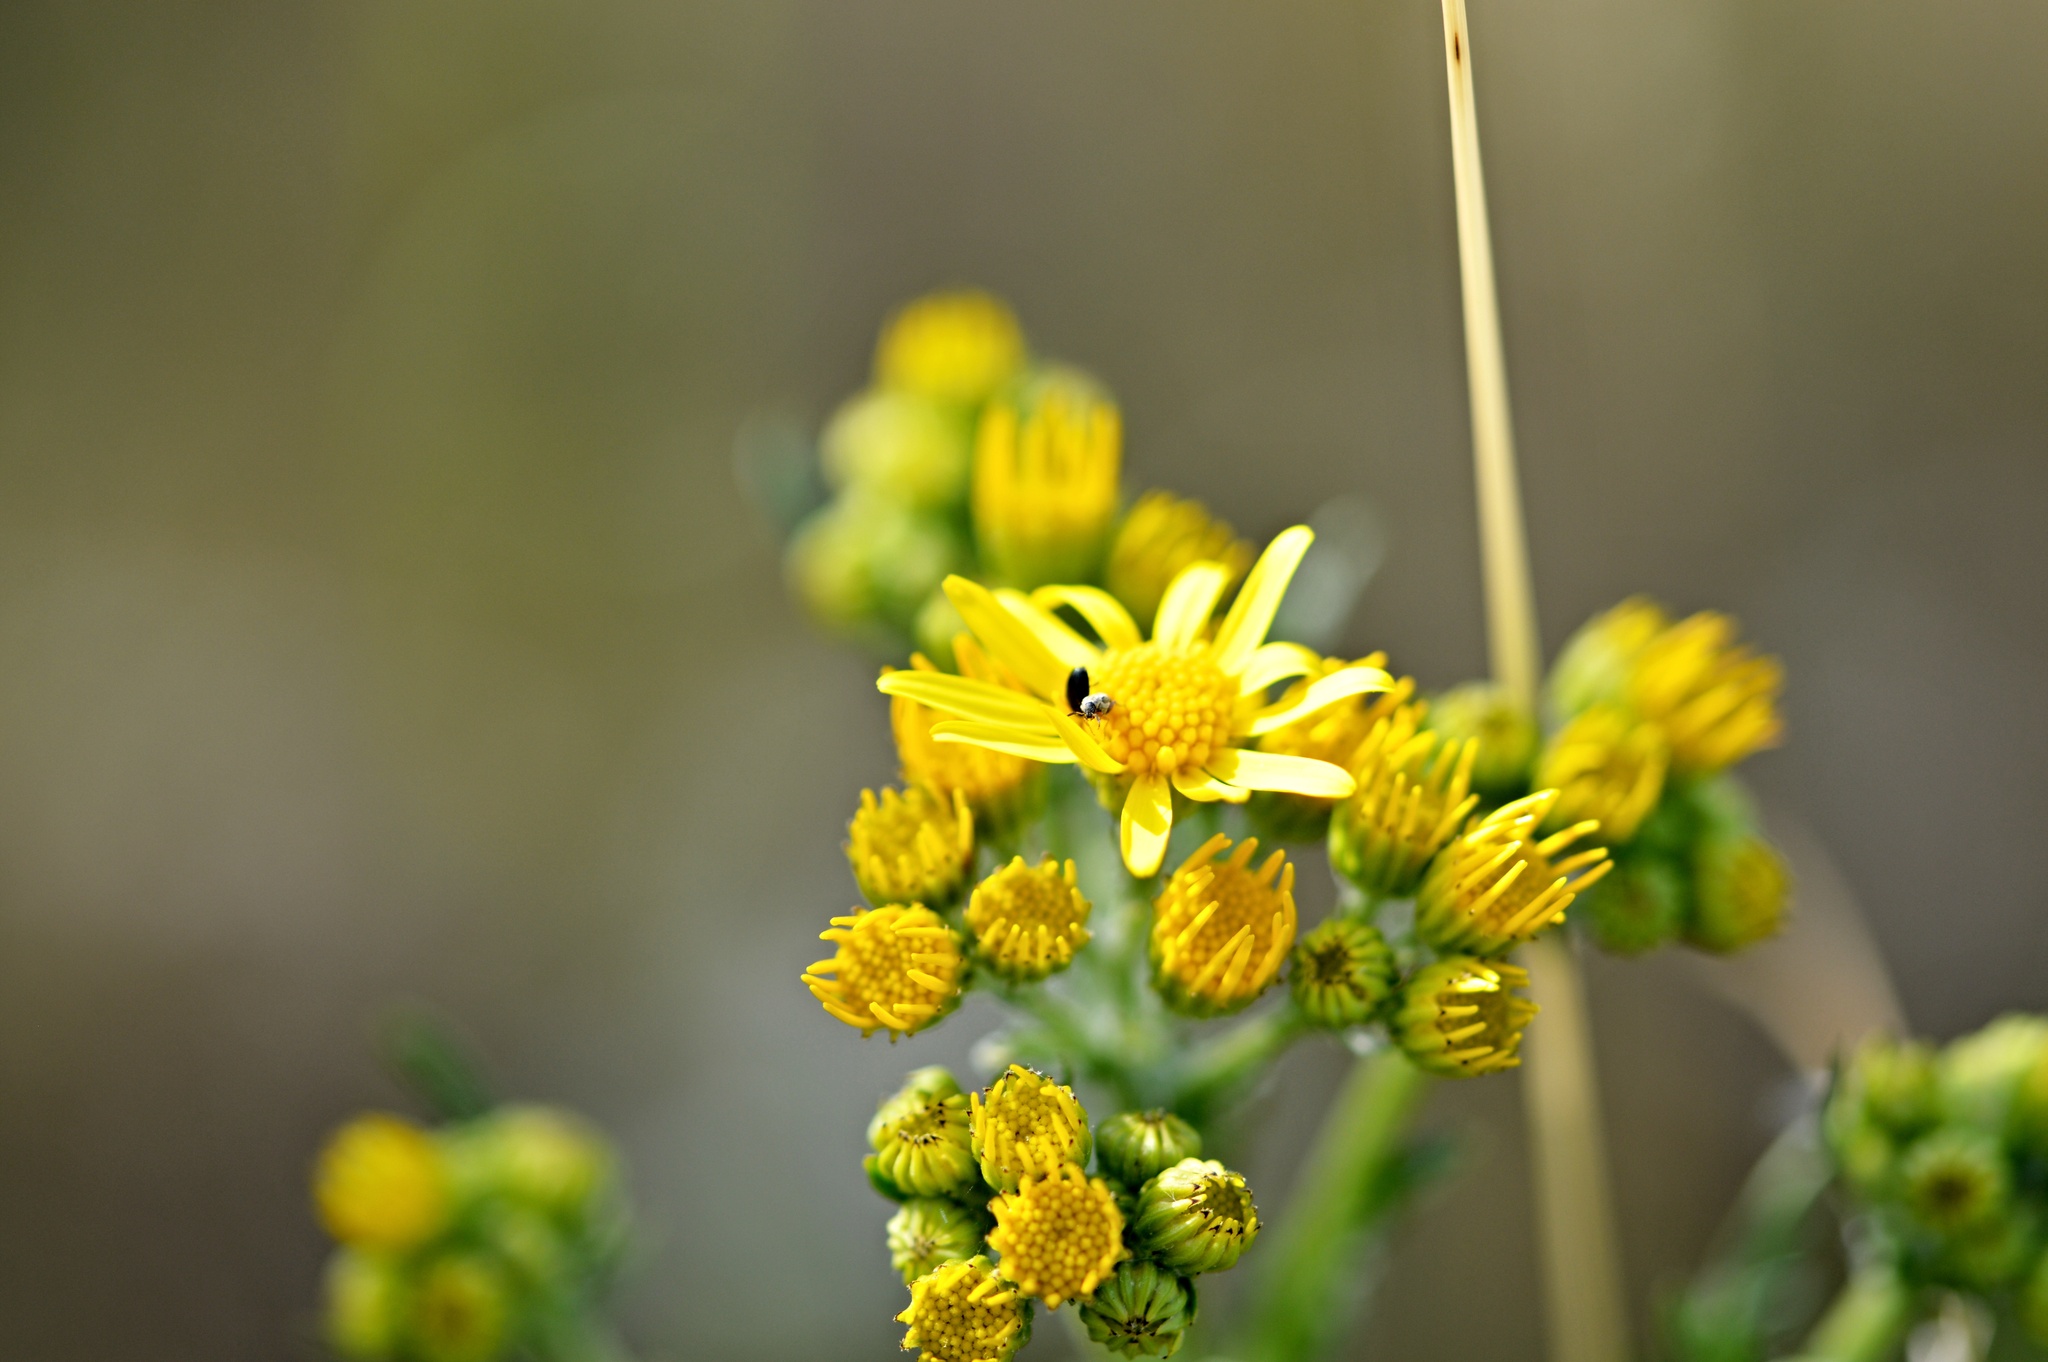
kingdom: Plantae
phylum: Tracheophyta
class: Magnoliopsida
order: Asterales
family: Asteraceae
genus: Jacobaea
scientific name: Jacobaea vulgaris
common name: Stinking willie
